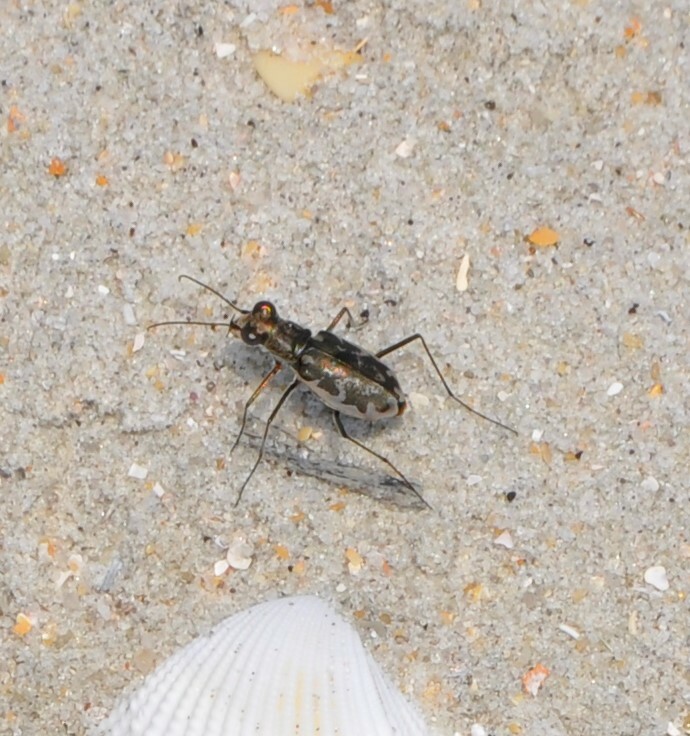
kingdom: Animalia
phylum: Arthropoda
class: Insecta
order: Coleoptera
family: Carabidae
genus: Ellipsoptera
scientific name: Ellipsoptera marginata
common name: Margined tiger beetle
